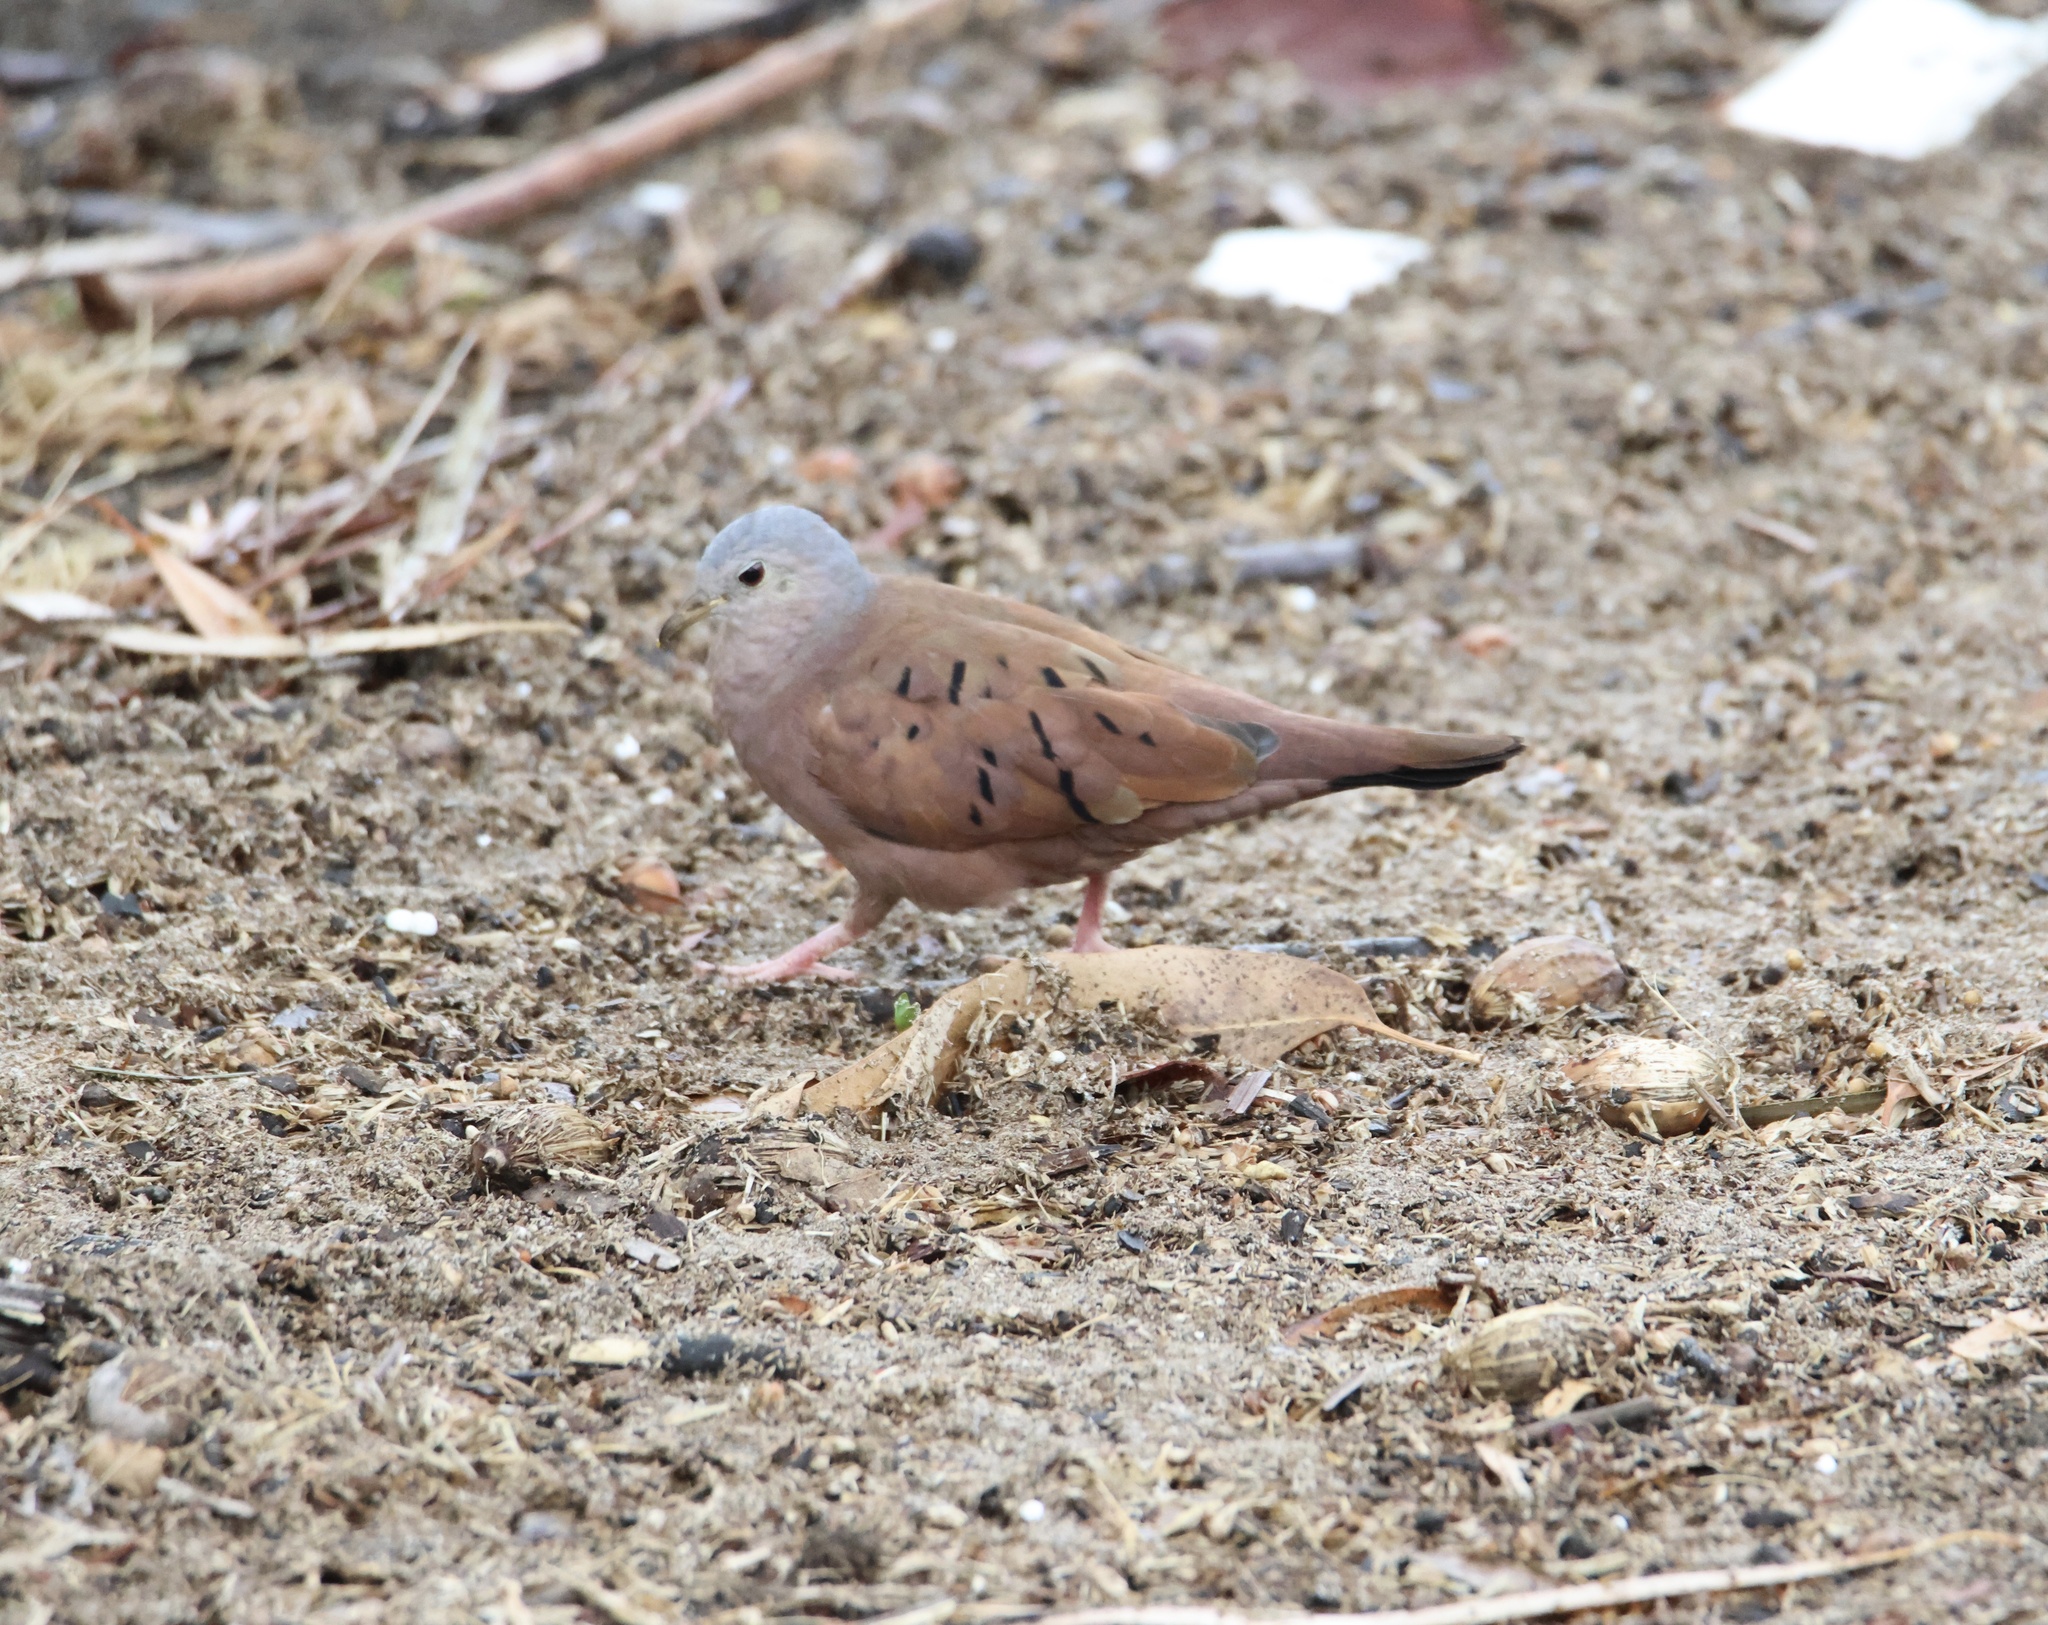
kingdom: Animalia
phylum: Chordata
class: Aves
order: Columbiformes
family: Columbidae
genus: Columbina
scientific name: Columbina talpacoti
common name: Ruddy ground dove
